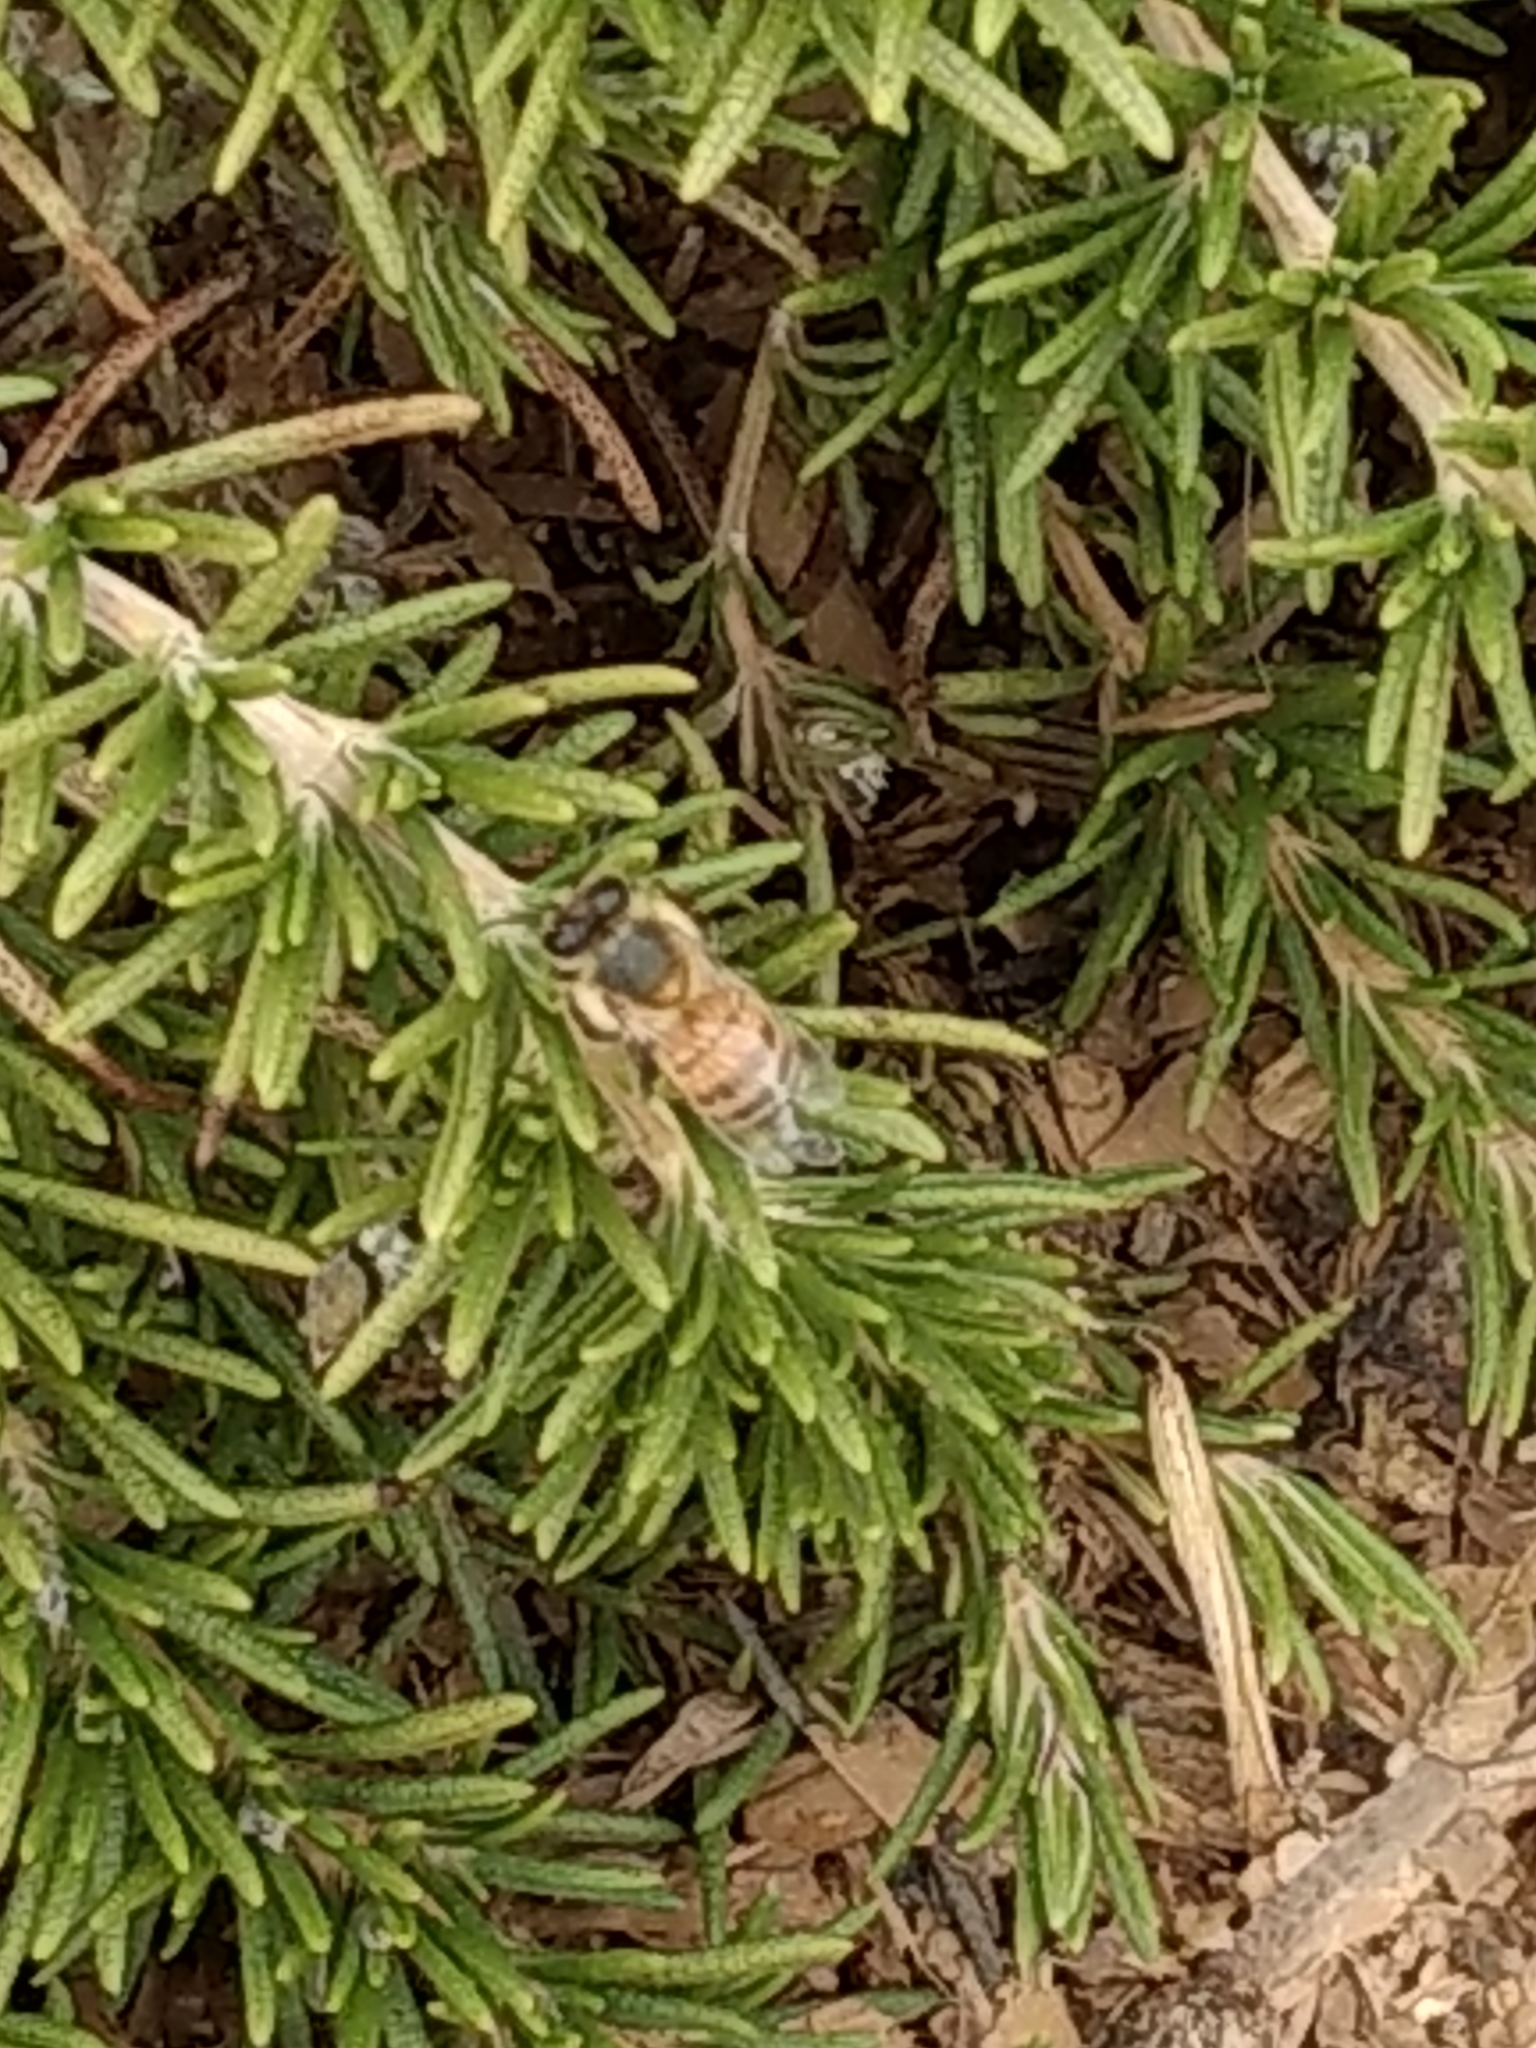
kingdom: Animalia
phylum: Arthropoda
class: Insecta
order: Hymenoptera
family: Apidae
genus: Apis
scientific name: Apis mellifera
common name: Honey bee
